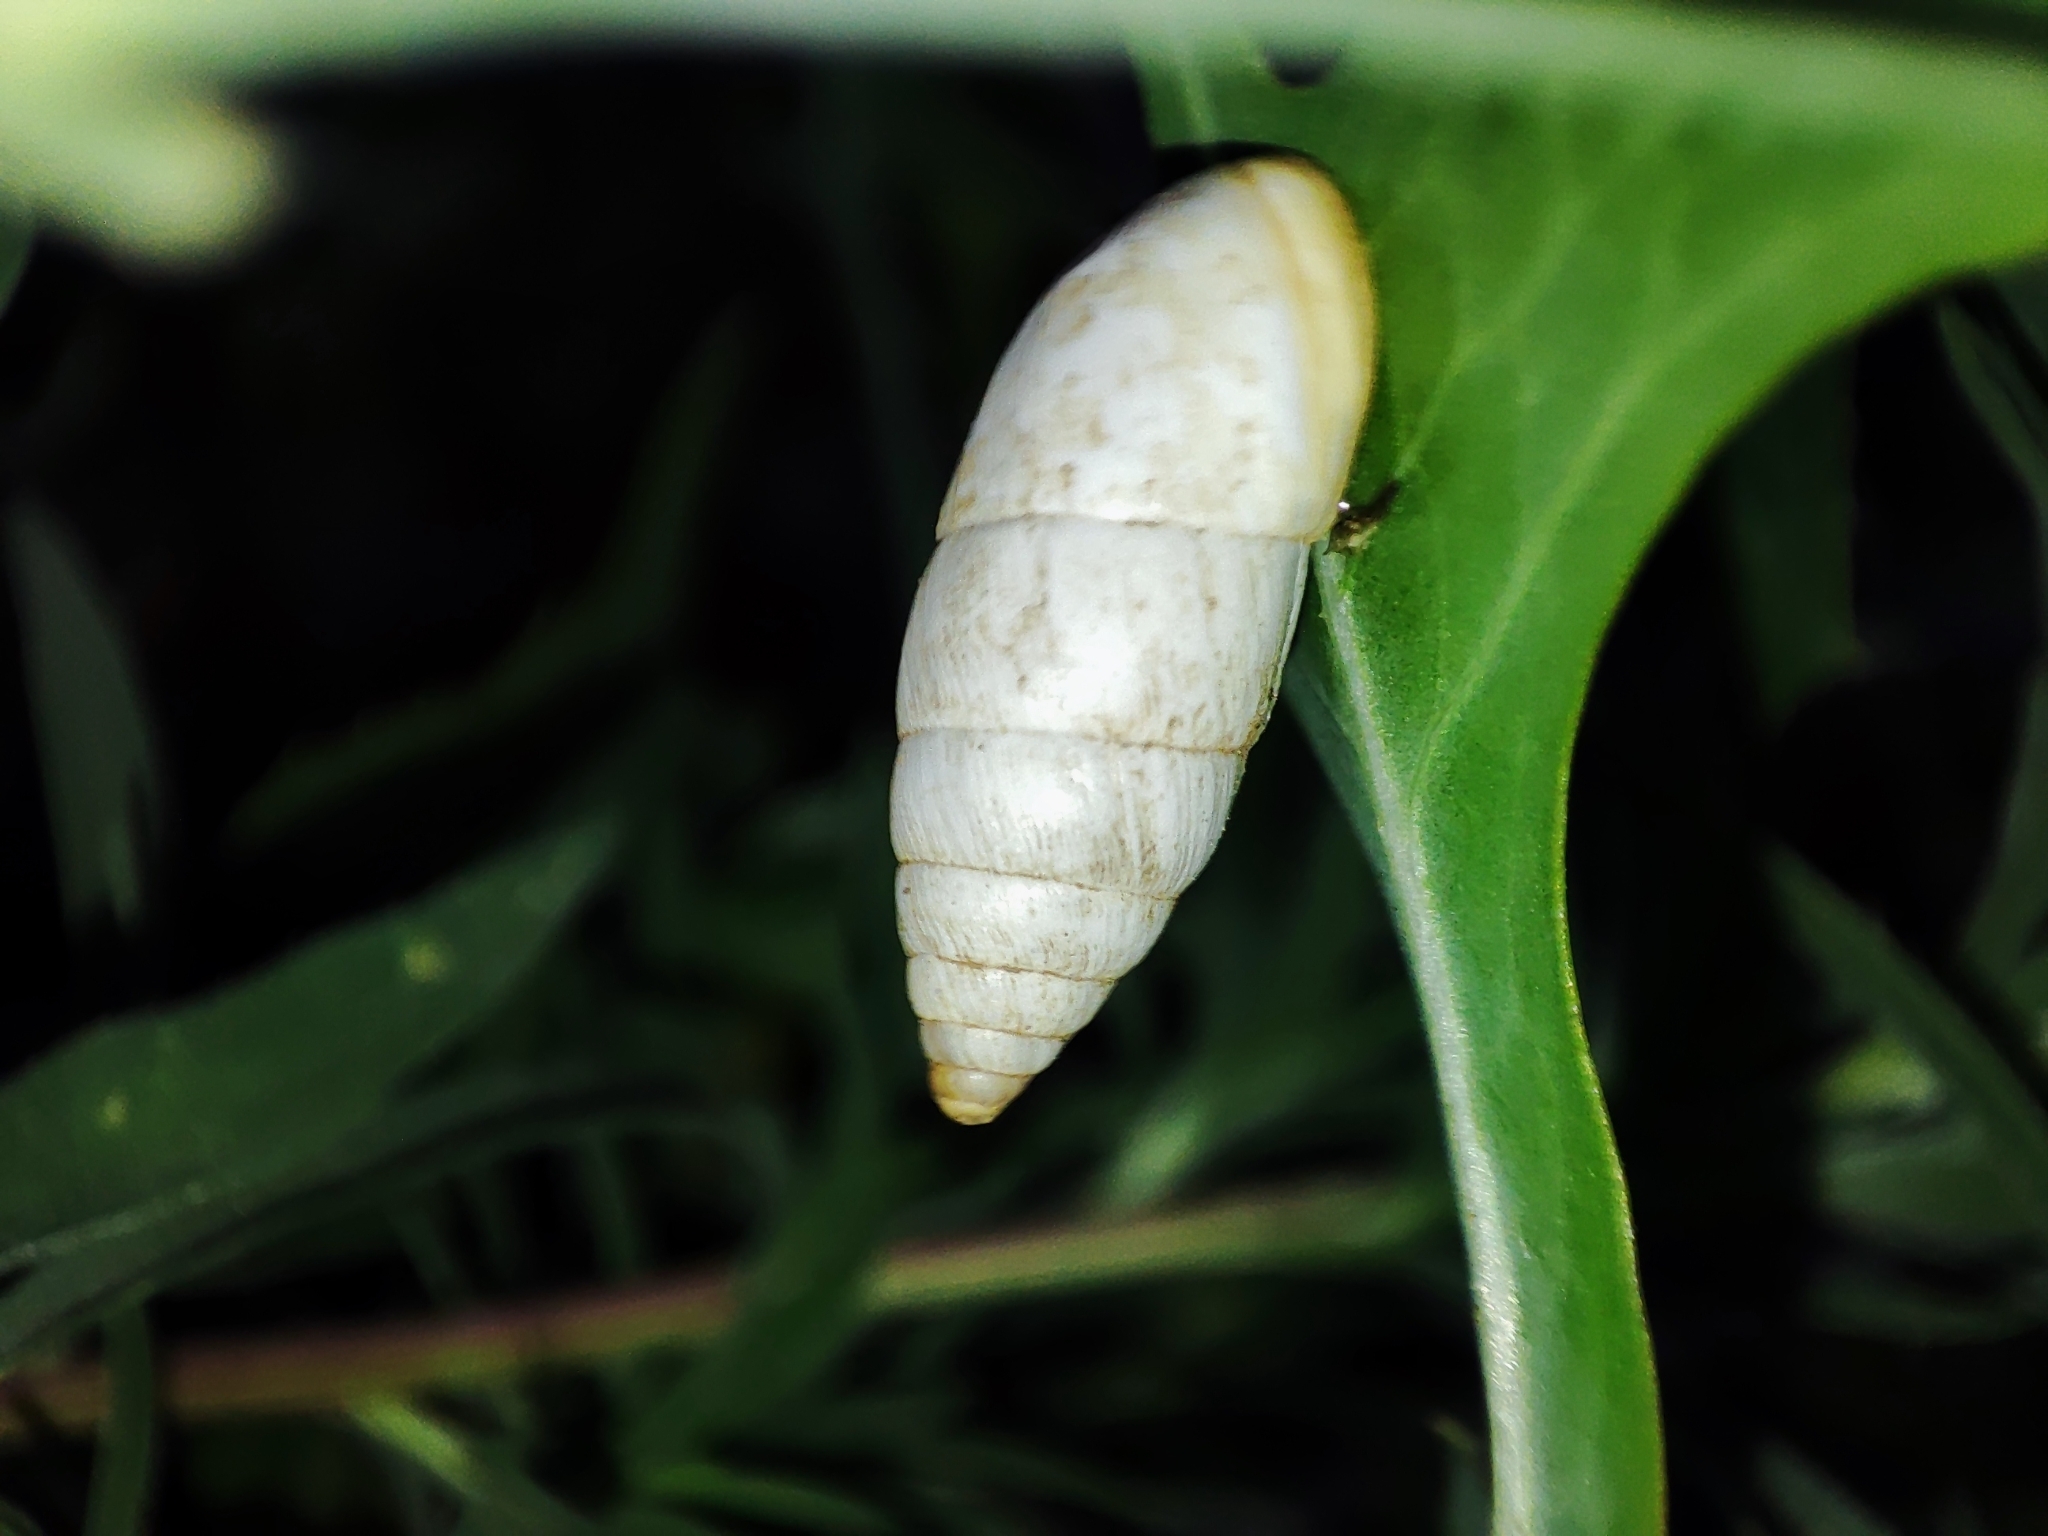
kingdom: Animalia
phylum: Mollusca
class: Gastropoda
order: Stylommatophora
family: Enidae
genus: Brephulopsis
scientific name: Brephulopsis cylindrica
